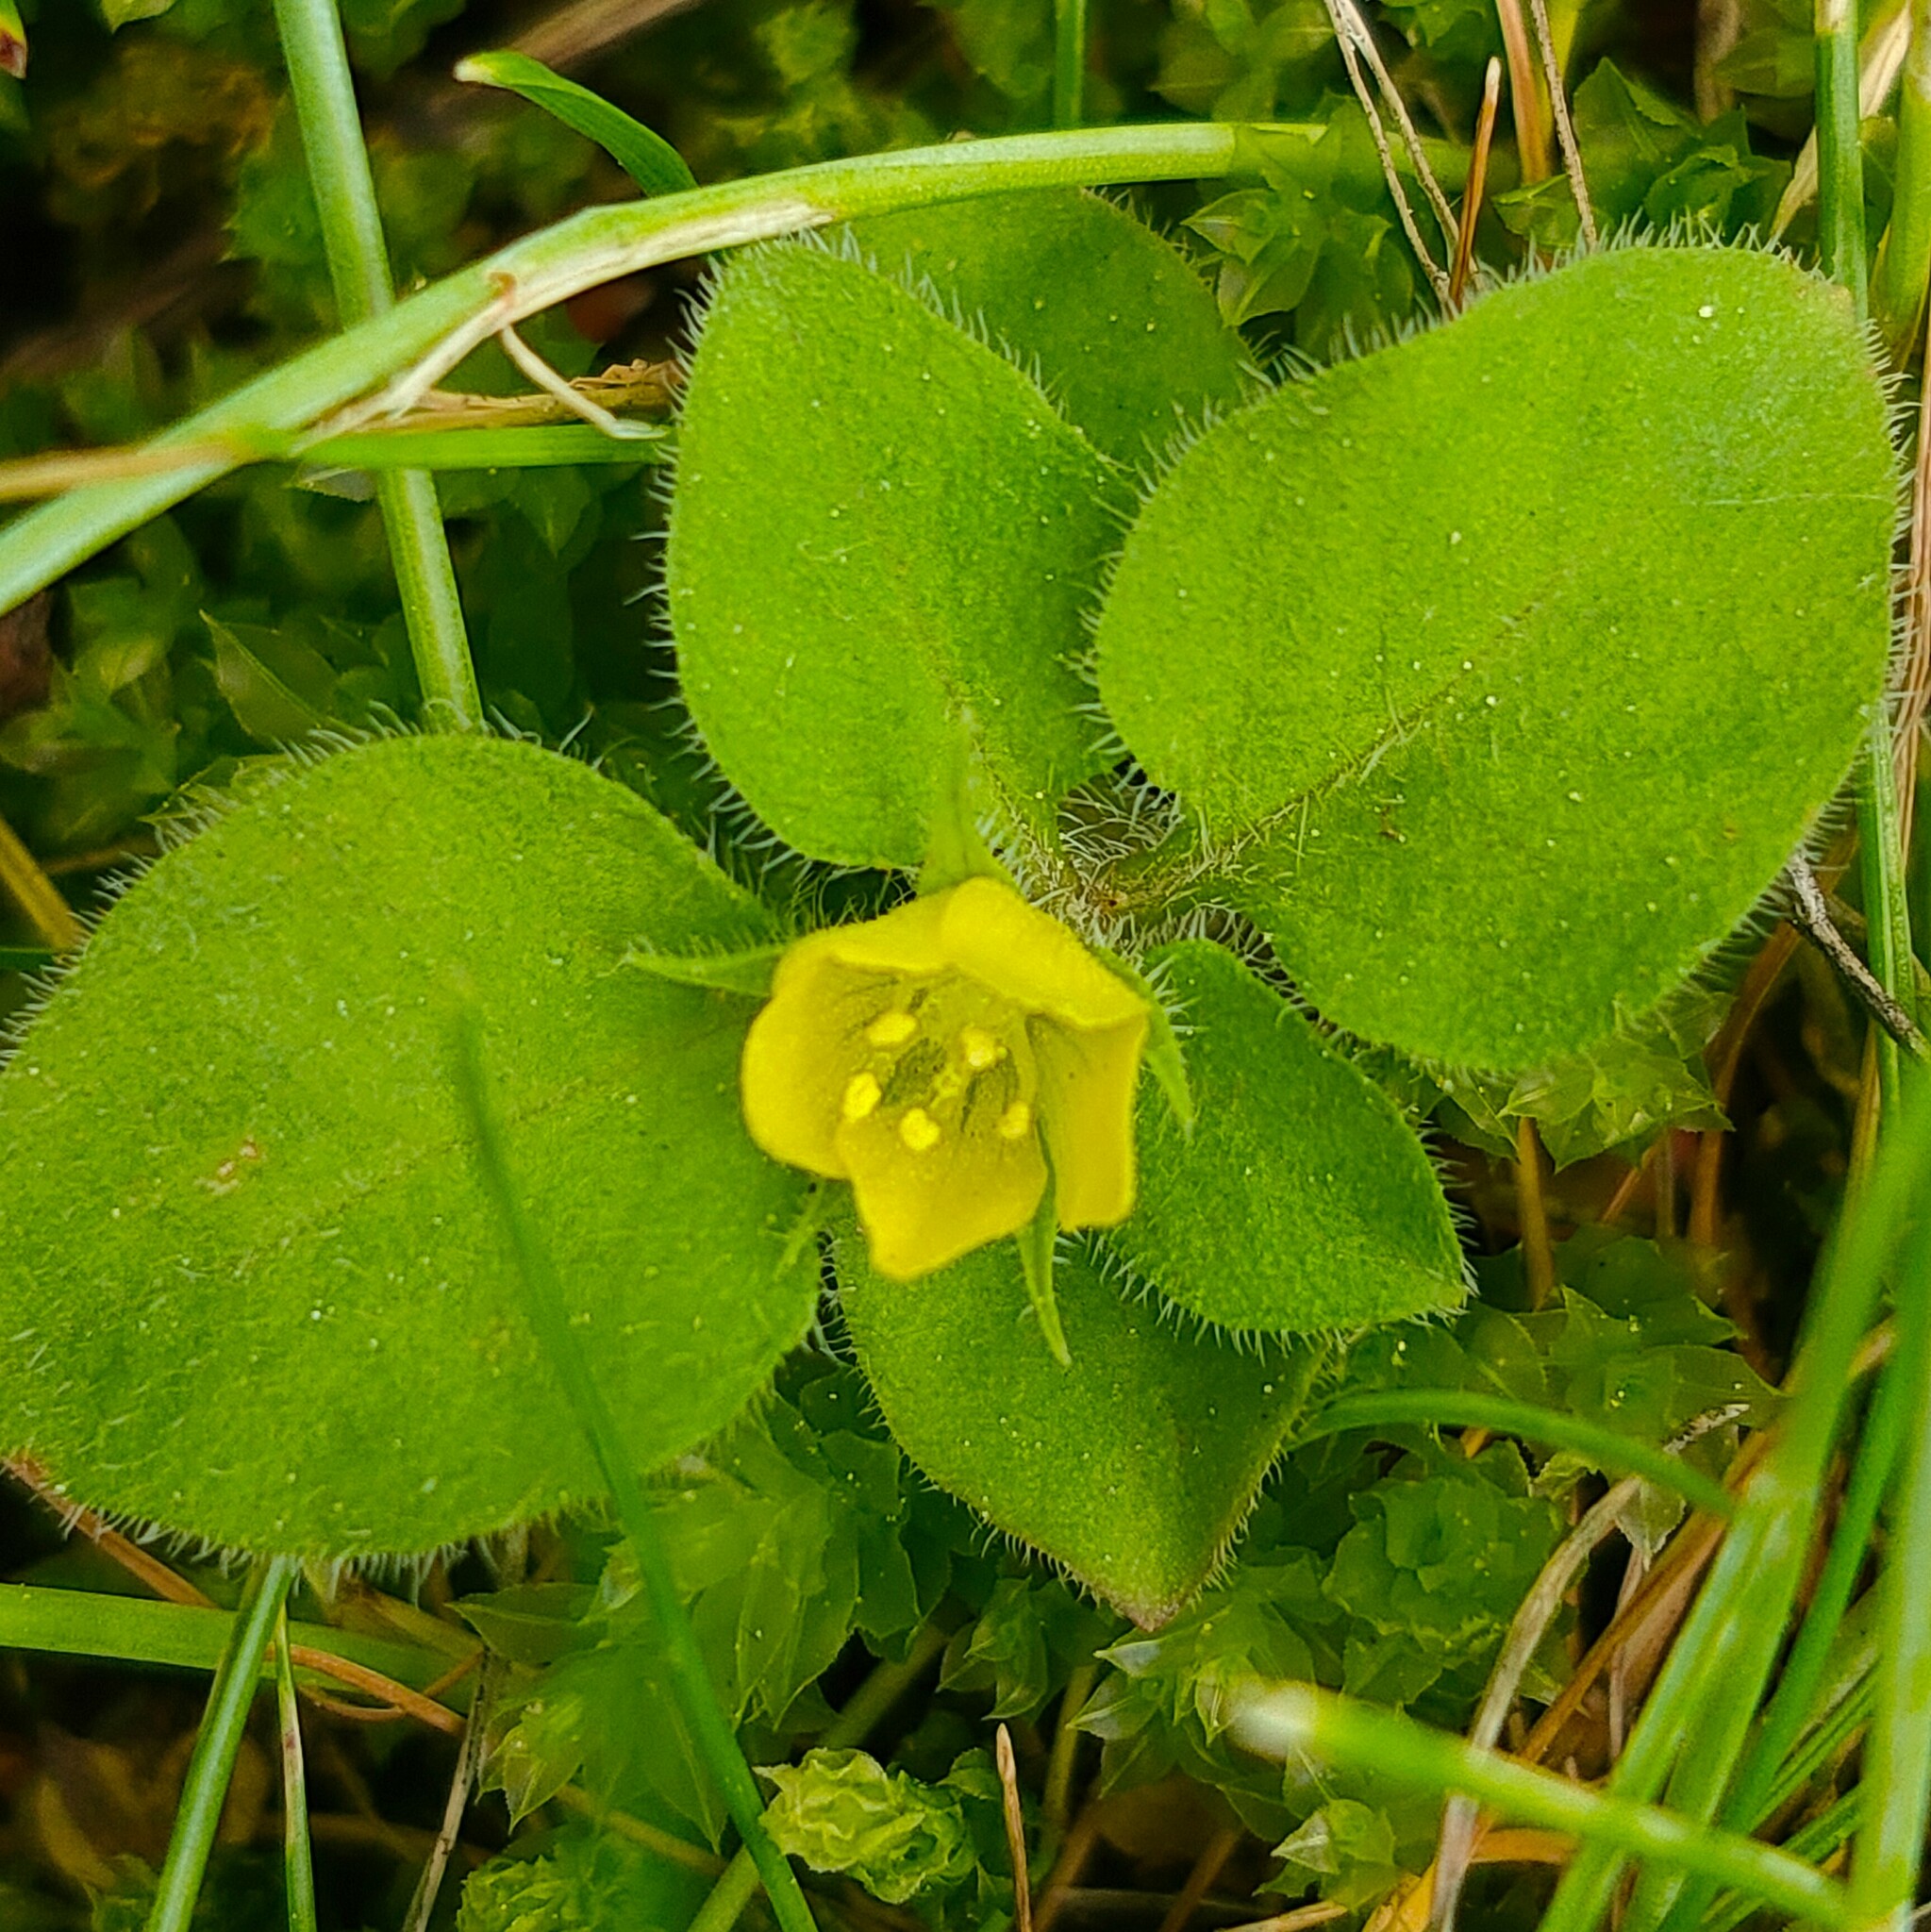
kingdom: Plantae
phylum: Tracheophyta
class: Magnoliopsida
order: Ericales
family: Primulaceae
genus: Lysimachia
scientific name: Lysimachia japonica
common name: Japanese yellow loosestrife
